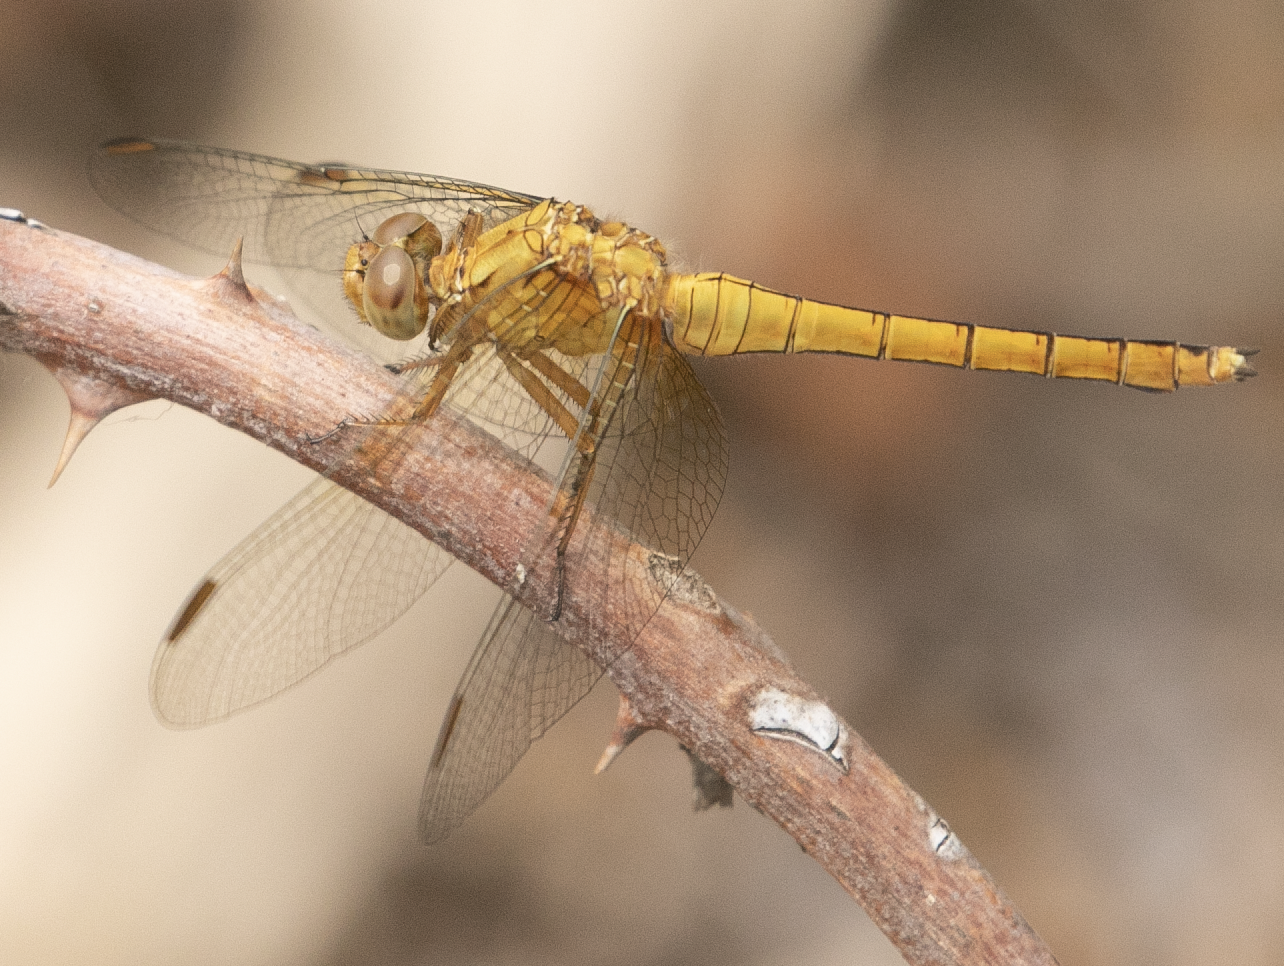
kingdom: Animalia
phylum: Arthropoda
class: Insecta
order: Odonata
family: Libellulidae
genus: Orthetrum
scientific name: Orthetrum coerulescens
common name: Keeled skimmer
